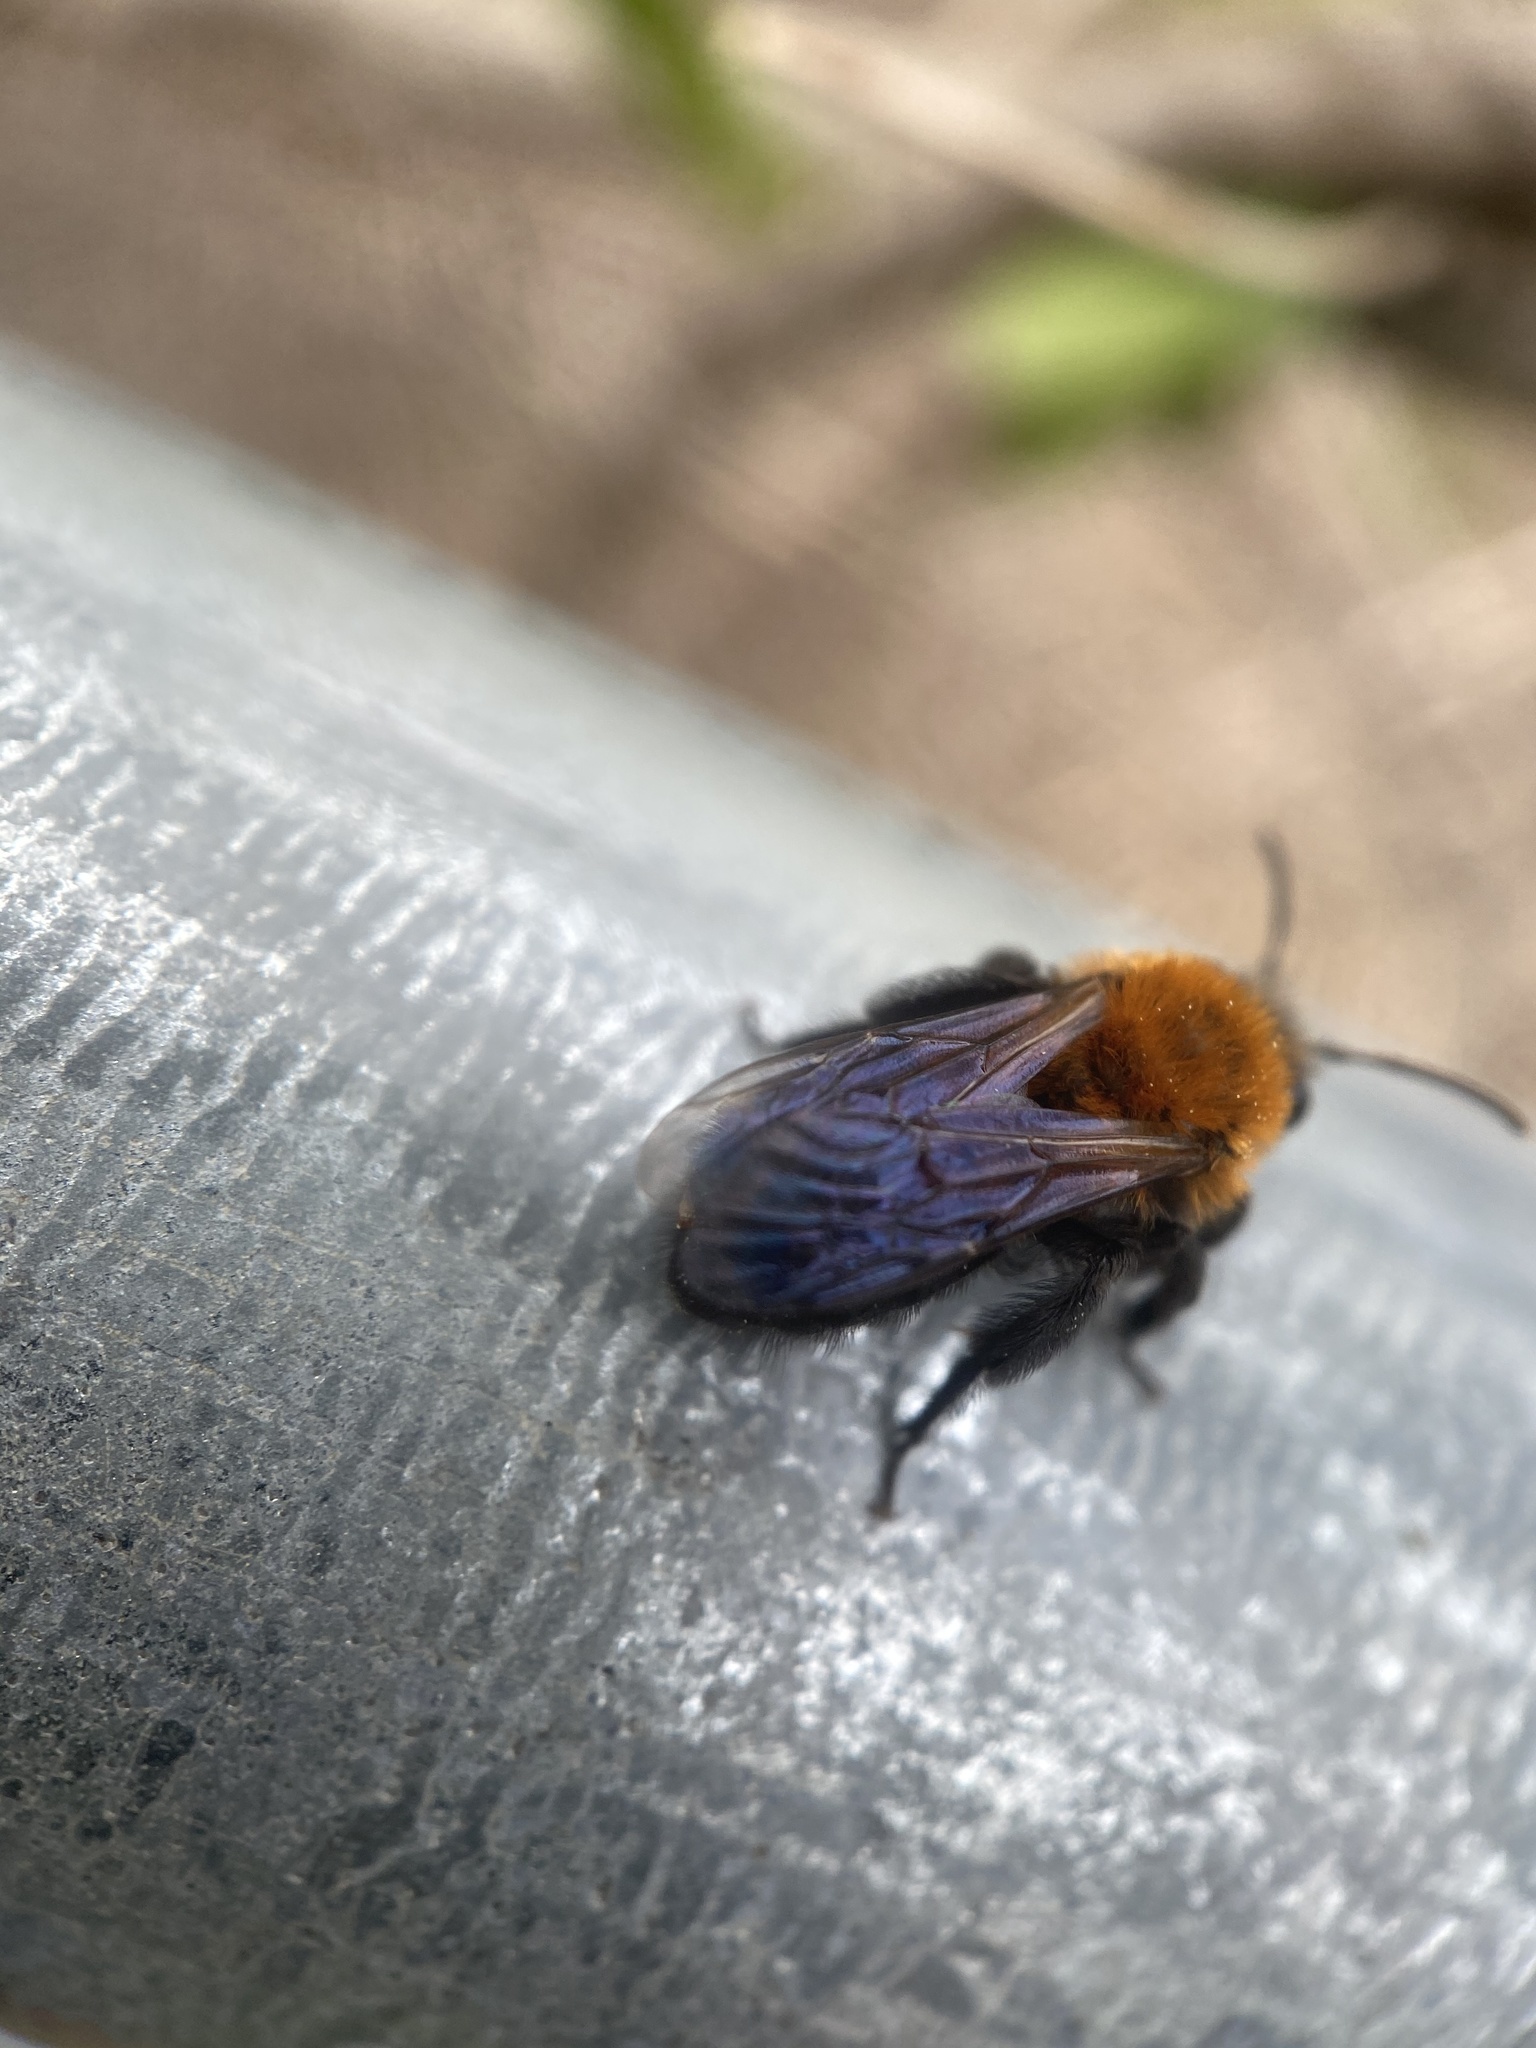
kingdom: Animalia
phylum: Arthropoda
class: Insecta
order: Hymenoptera
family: Andrenidae
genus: Andrena
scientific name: Andrena milwaukeensis
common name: Milwaukee mining bee
